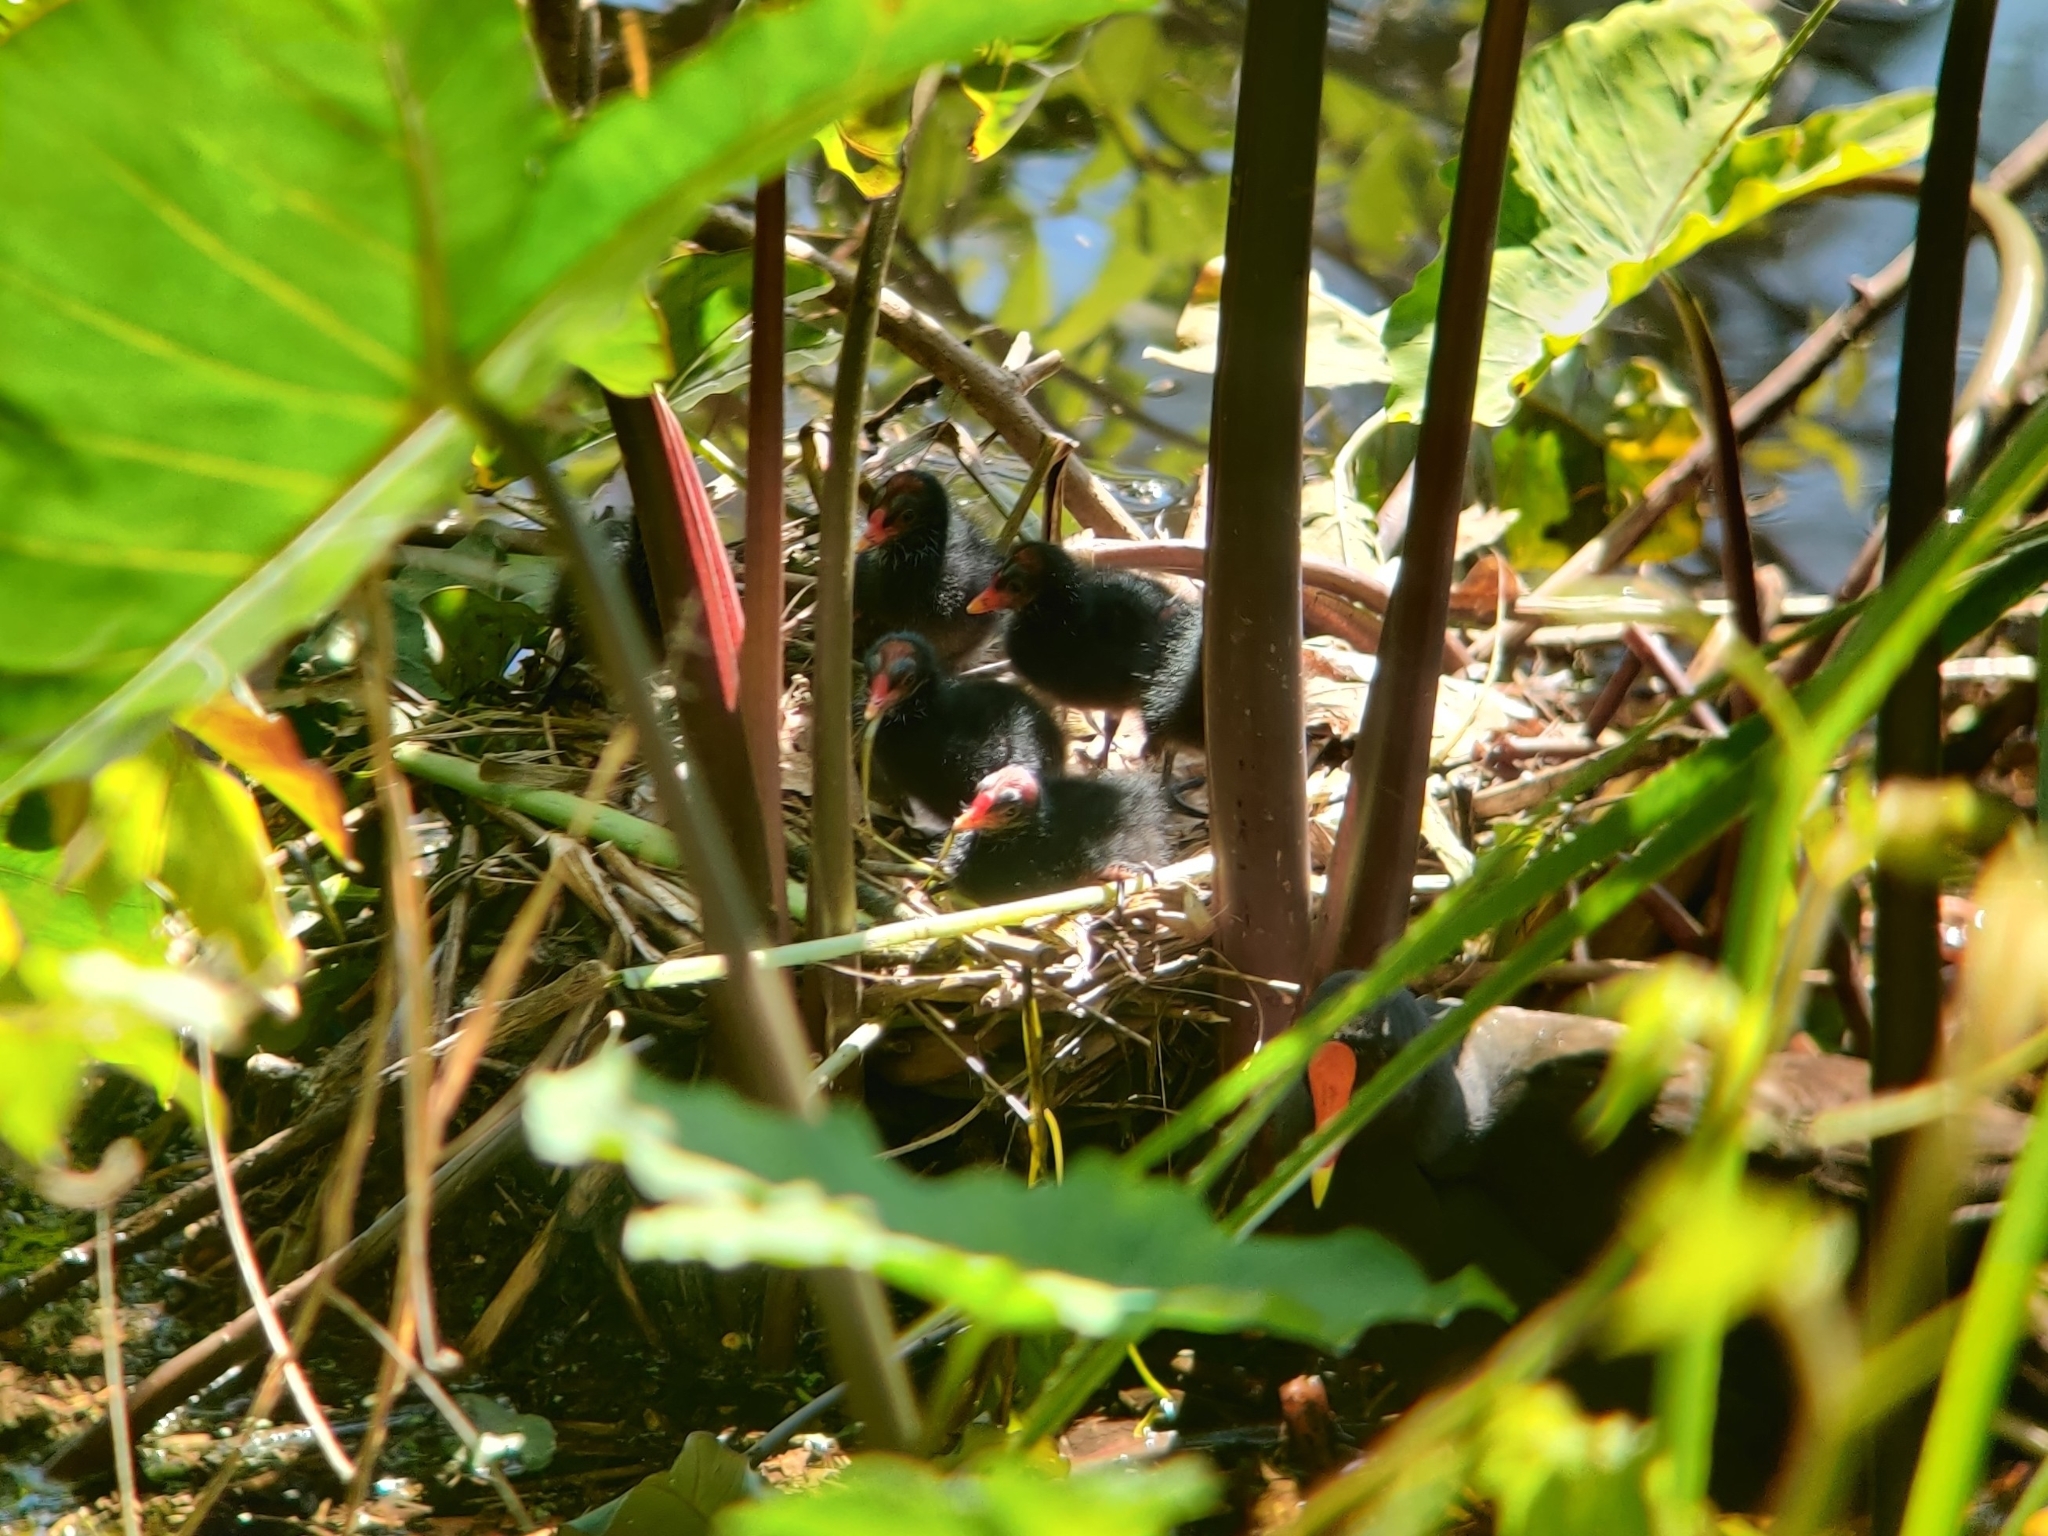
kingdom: Animalia
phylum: Chordata
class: Aves
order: Gruiformes
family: Rallidae
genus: Gallinula
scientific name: Gallinula tenebrosa
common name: Dusky moorhen
